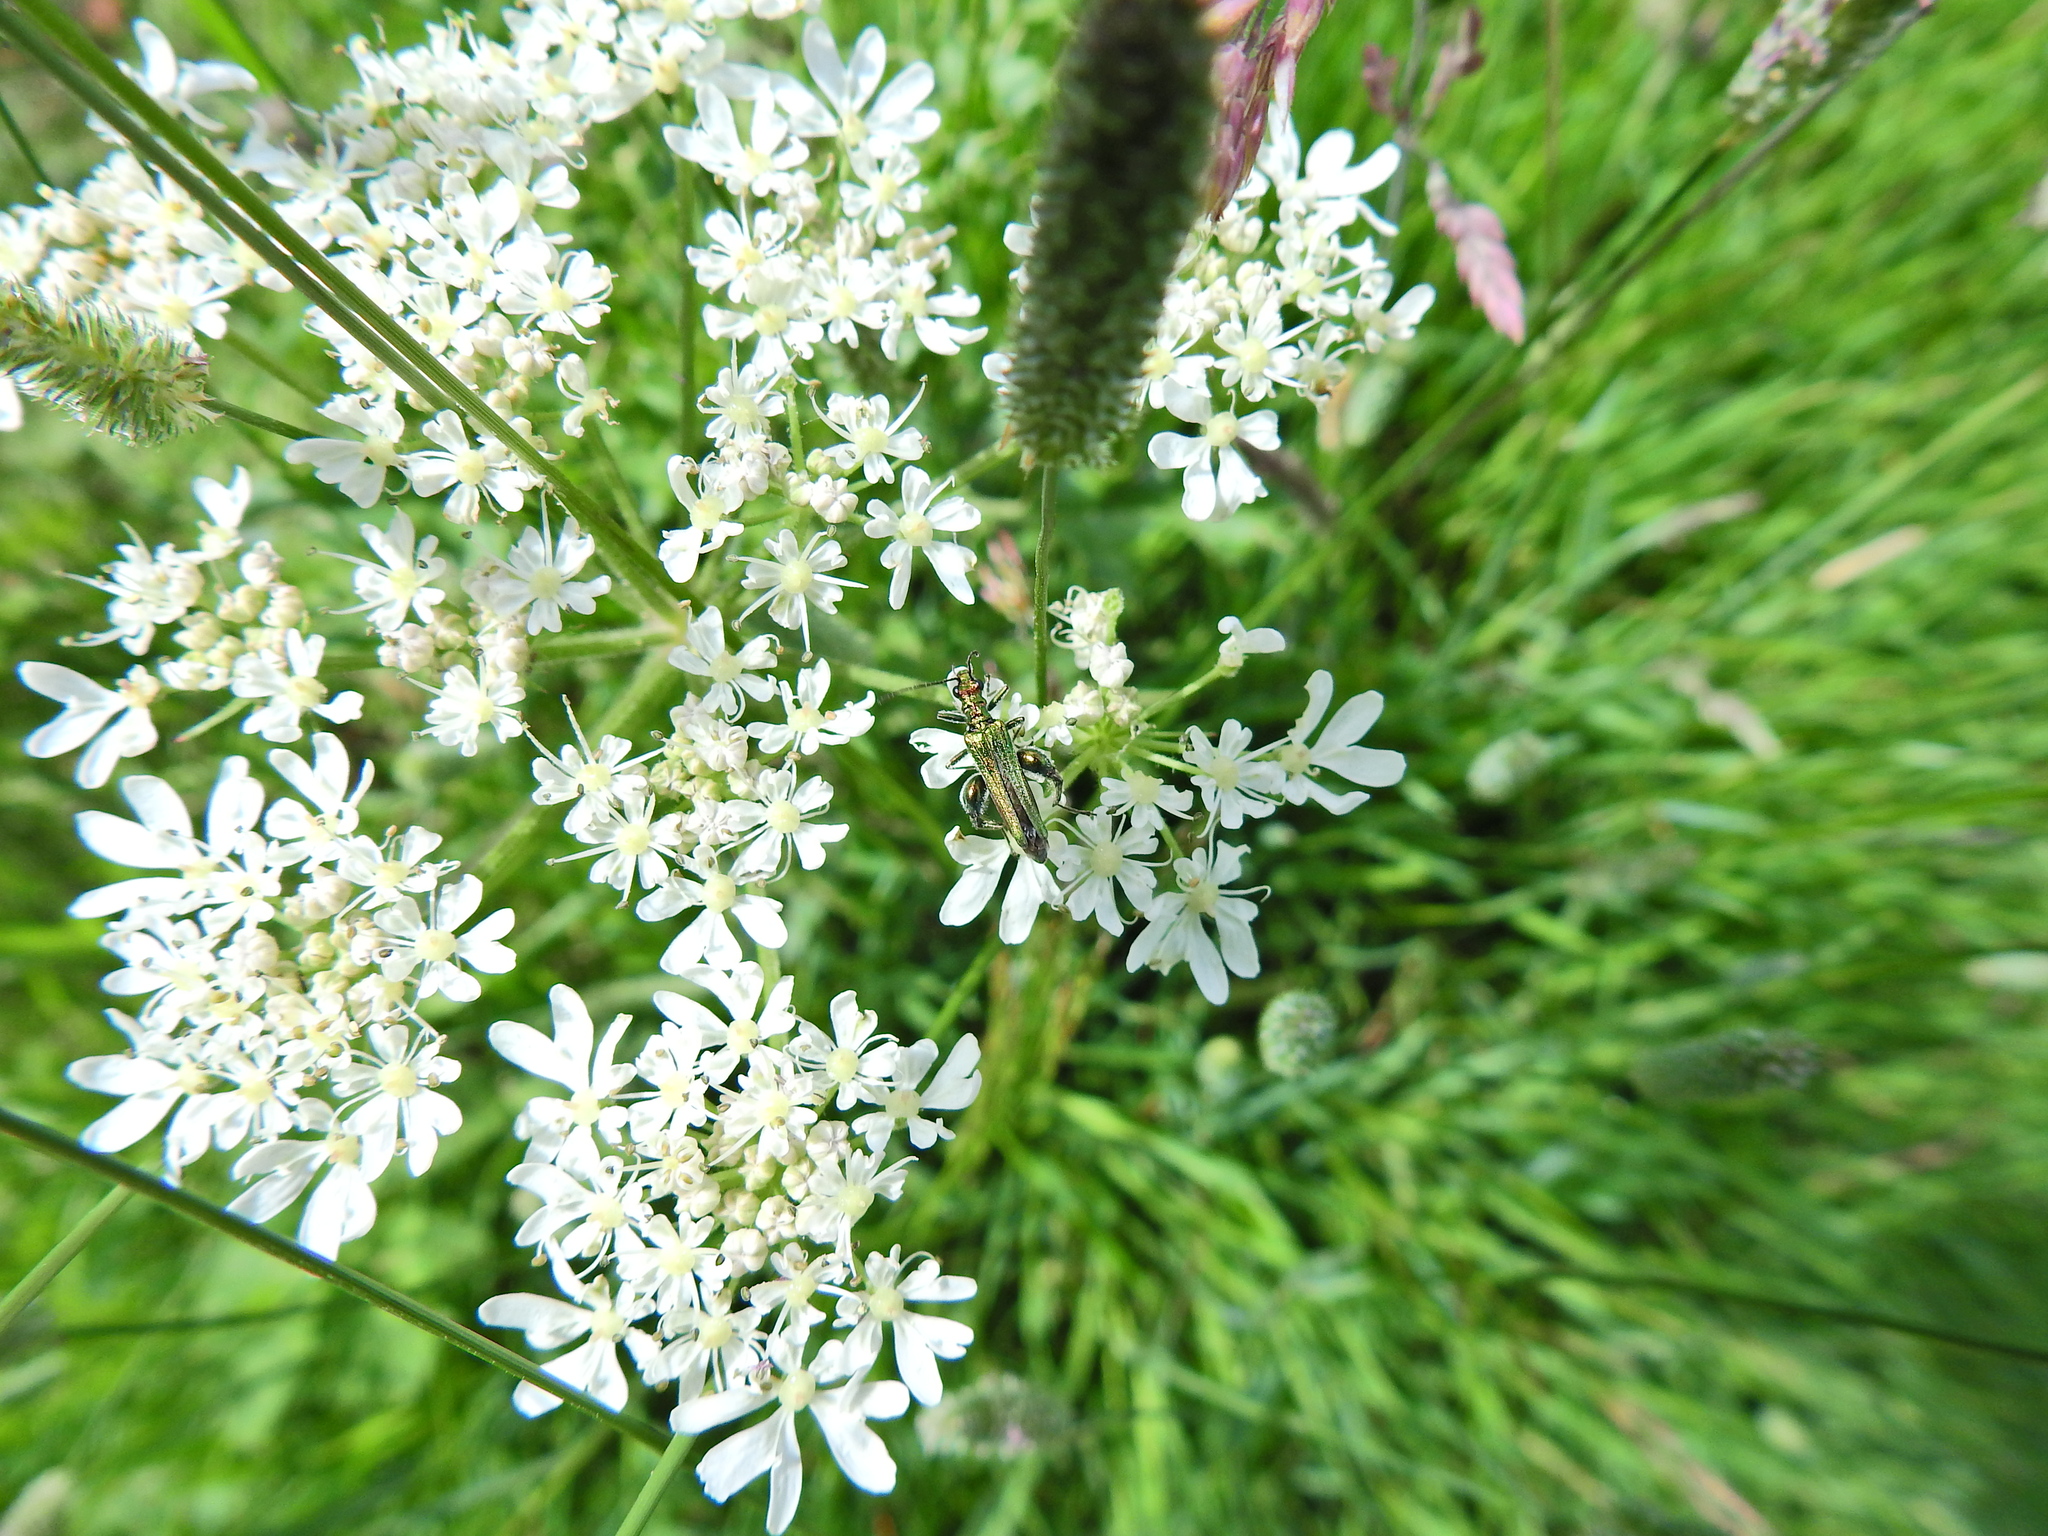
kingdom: Animalia
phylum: Arthropoda
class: Insecta
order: Coleoptera
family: Oedemeridae
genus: Oedemera
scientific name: Oedemera nobilis
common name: Swollen-thighed beetle
